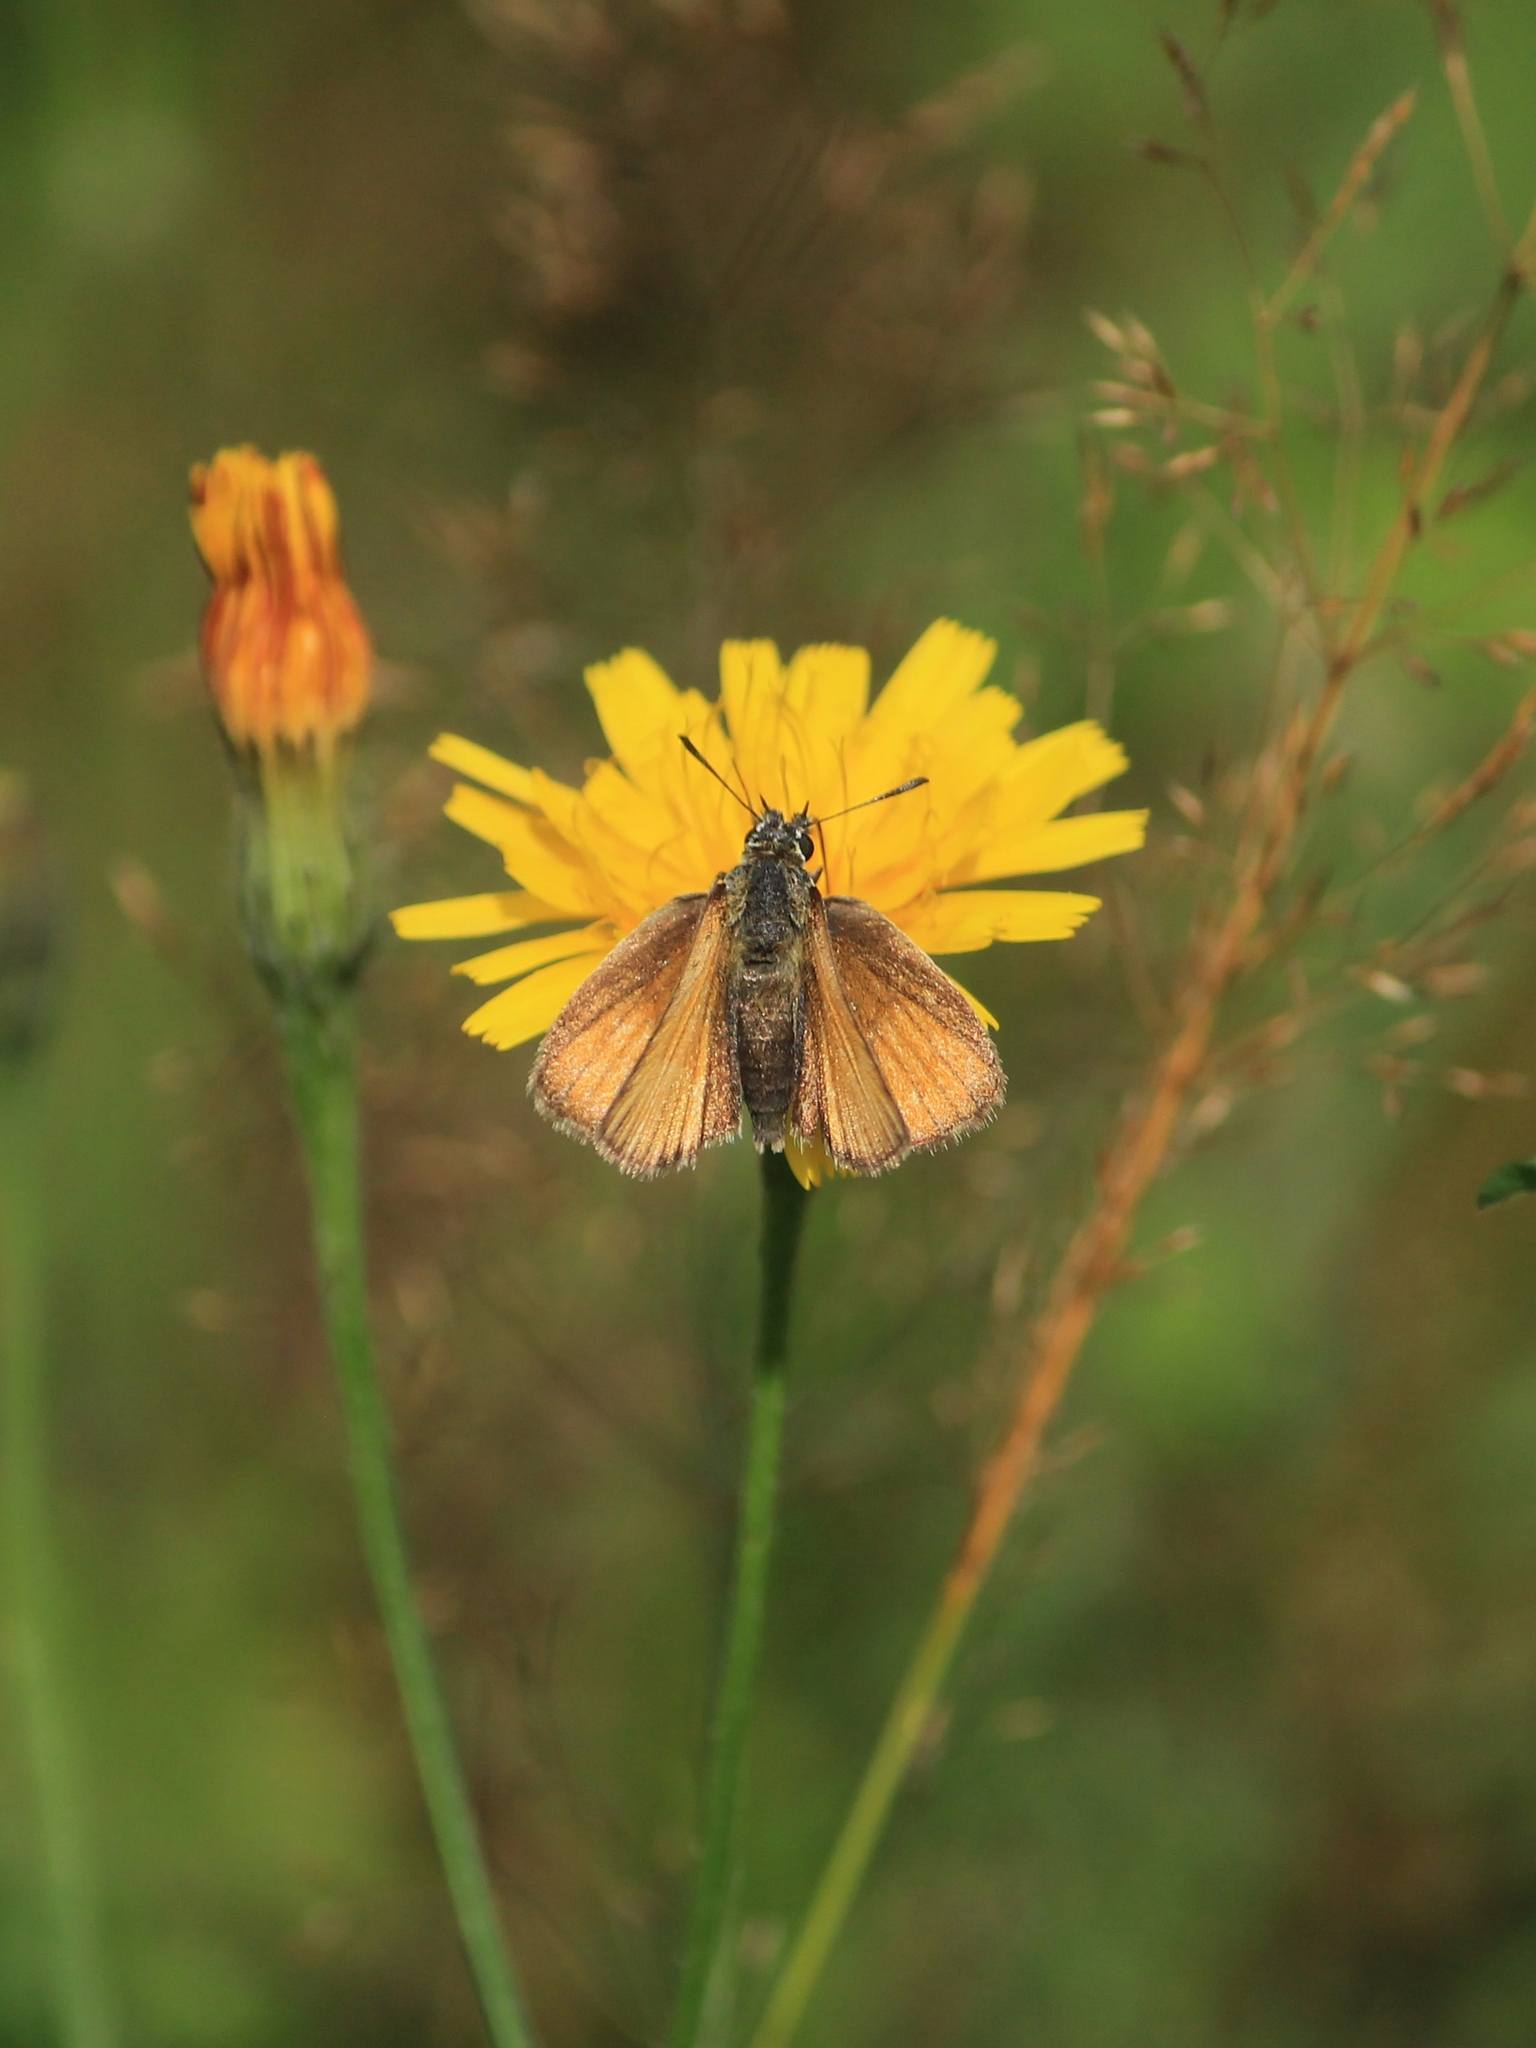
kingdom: Animalia
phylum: Arthropoda
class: Insecta
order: Lepidoptera
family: Hesperiidae
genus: Thymelicus
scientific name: Thymelicus lineola
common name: Essex skipper
